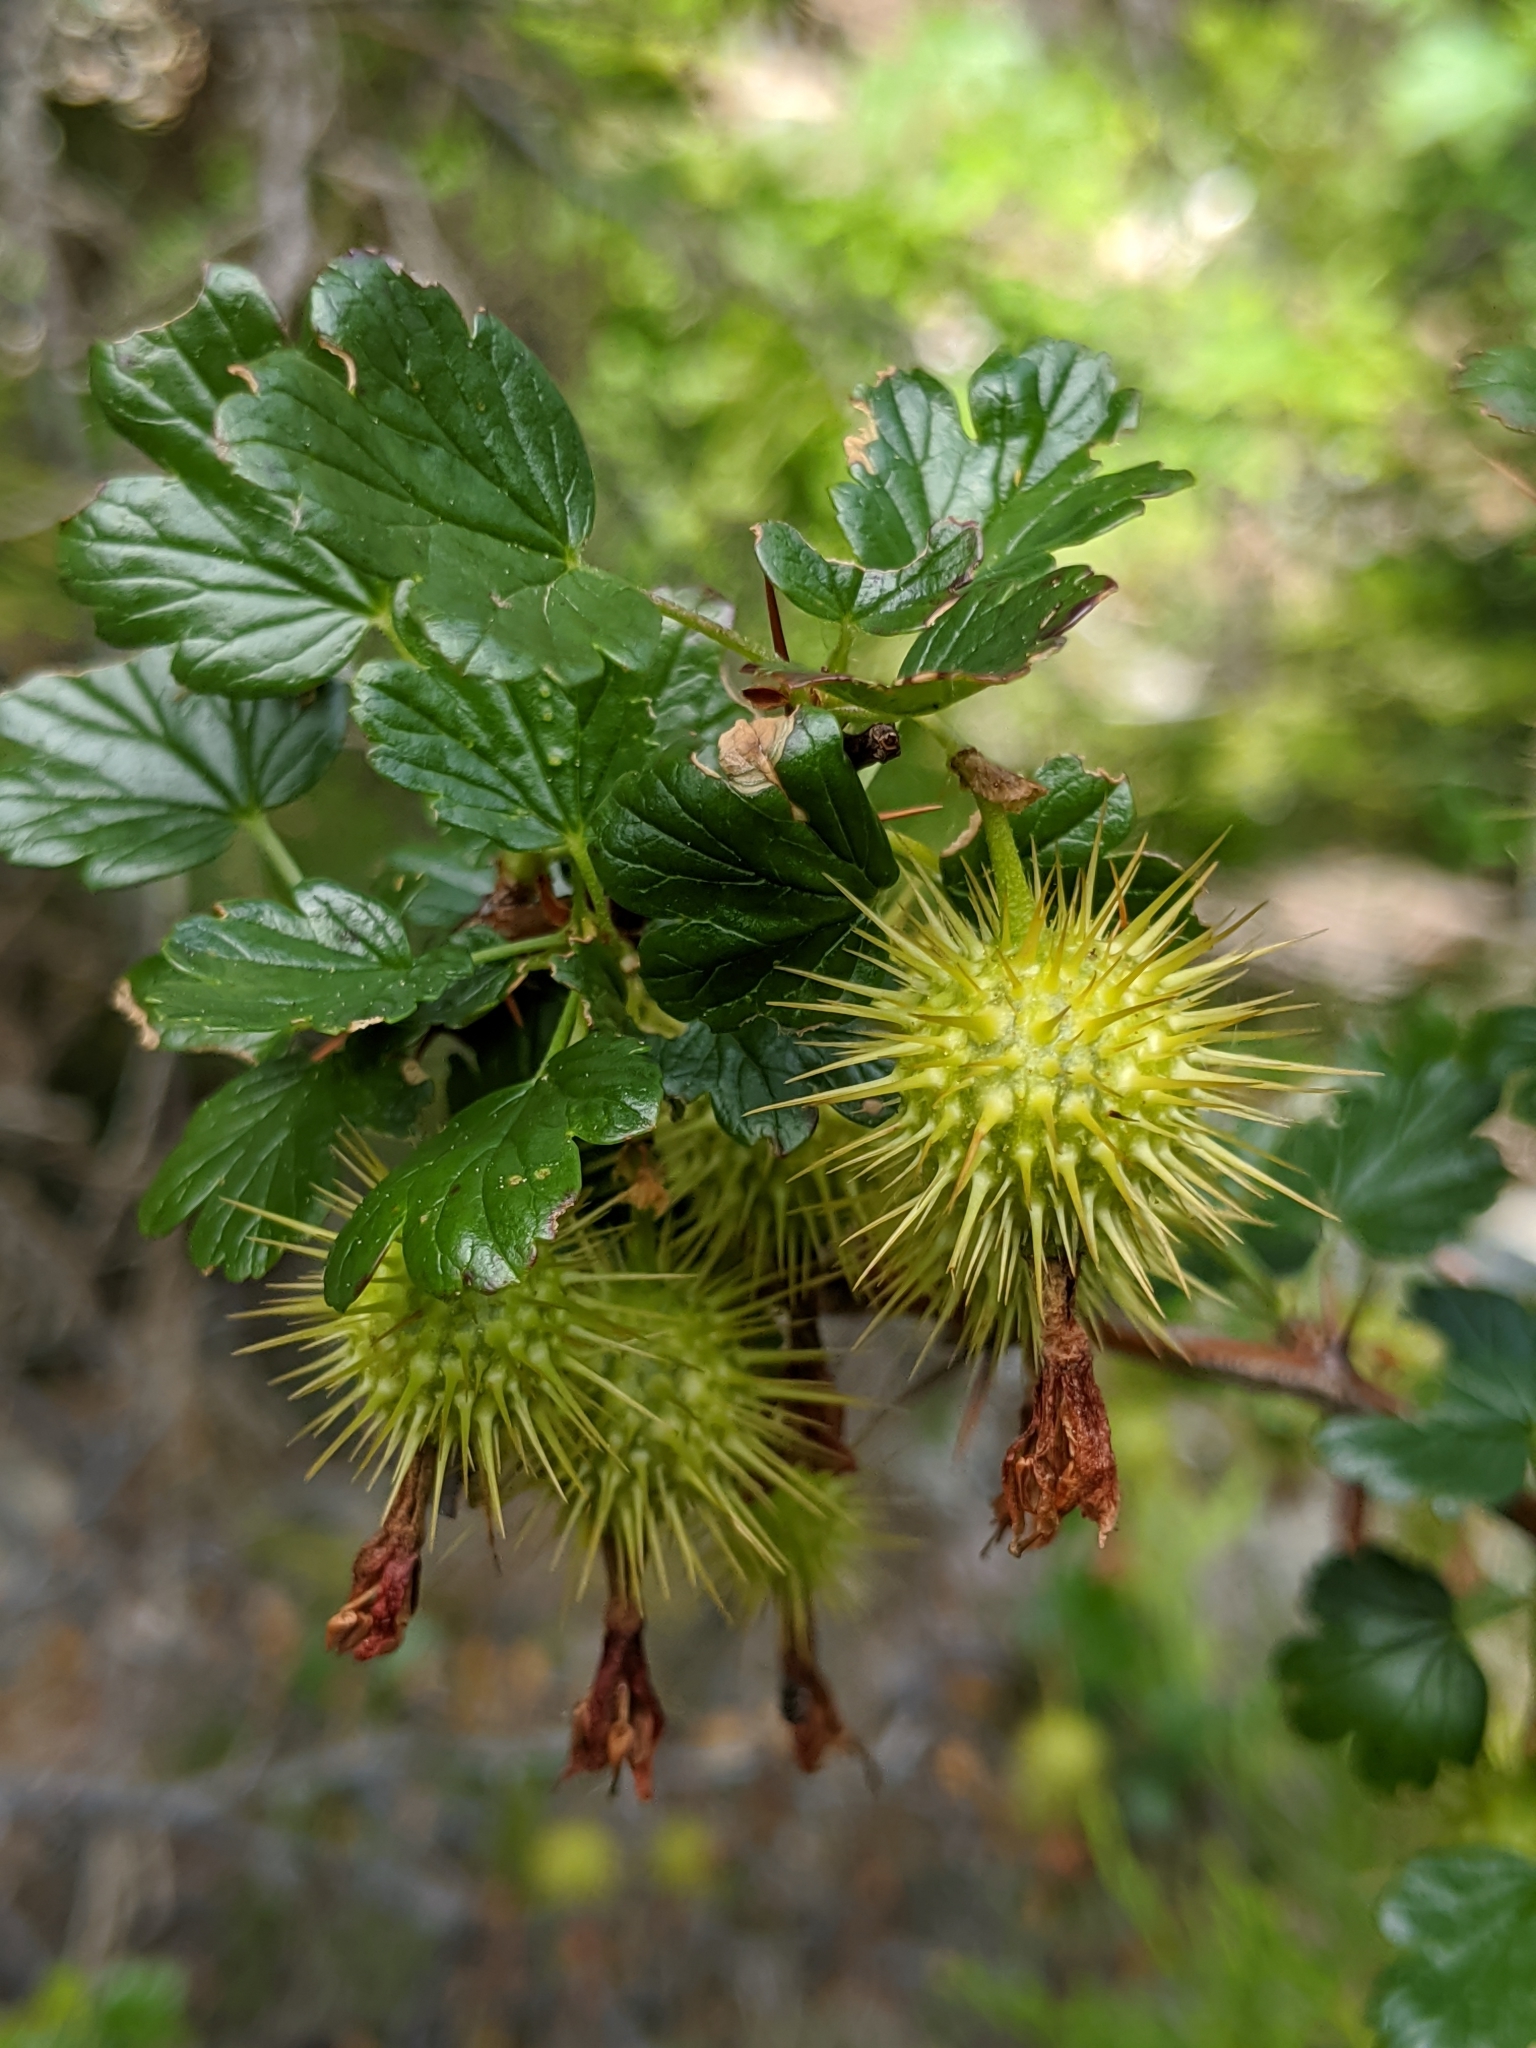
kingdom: Plantae
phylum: Tracheophyta
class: Magnoliopsida
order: Saxifragales
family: Grossulariaceae
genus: Ribes
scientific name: Ribes roezlii
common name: Sierra gooseberry
